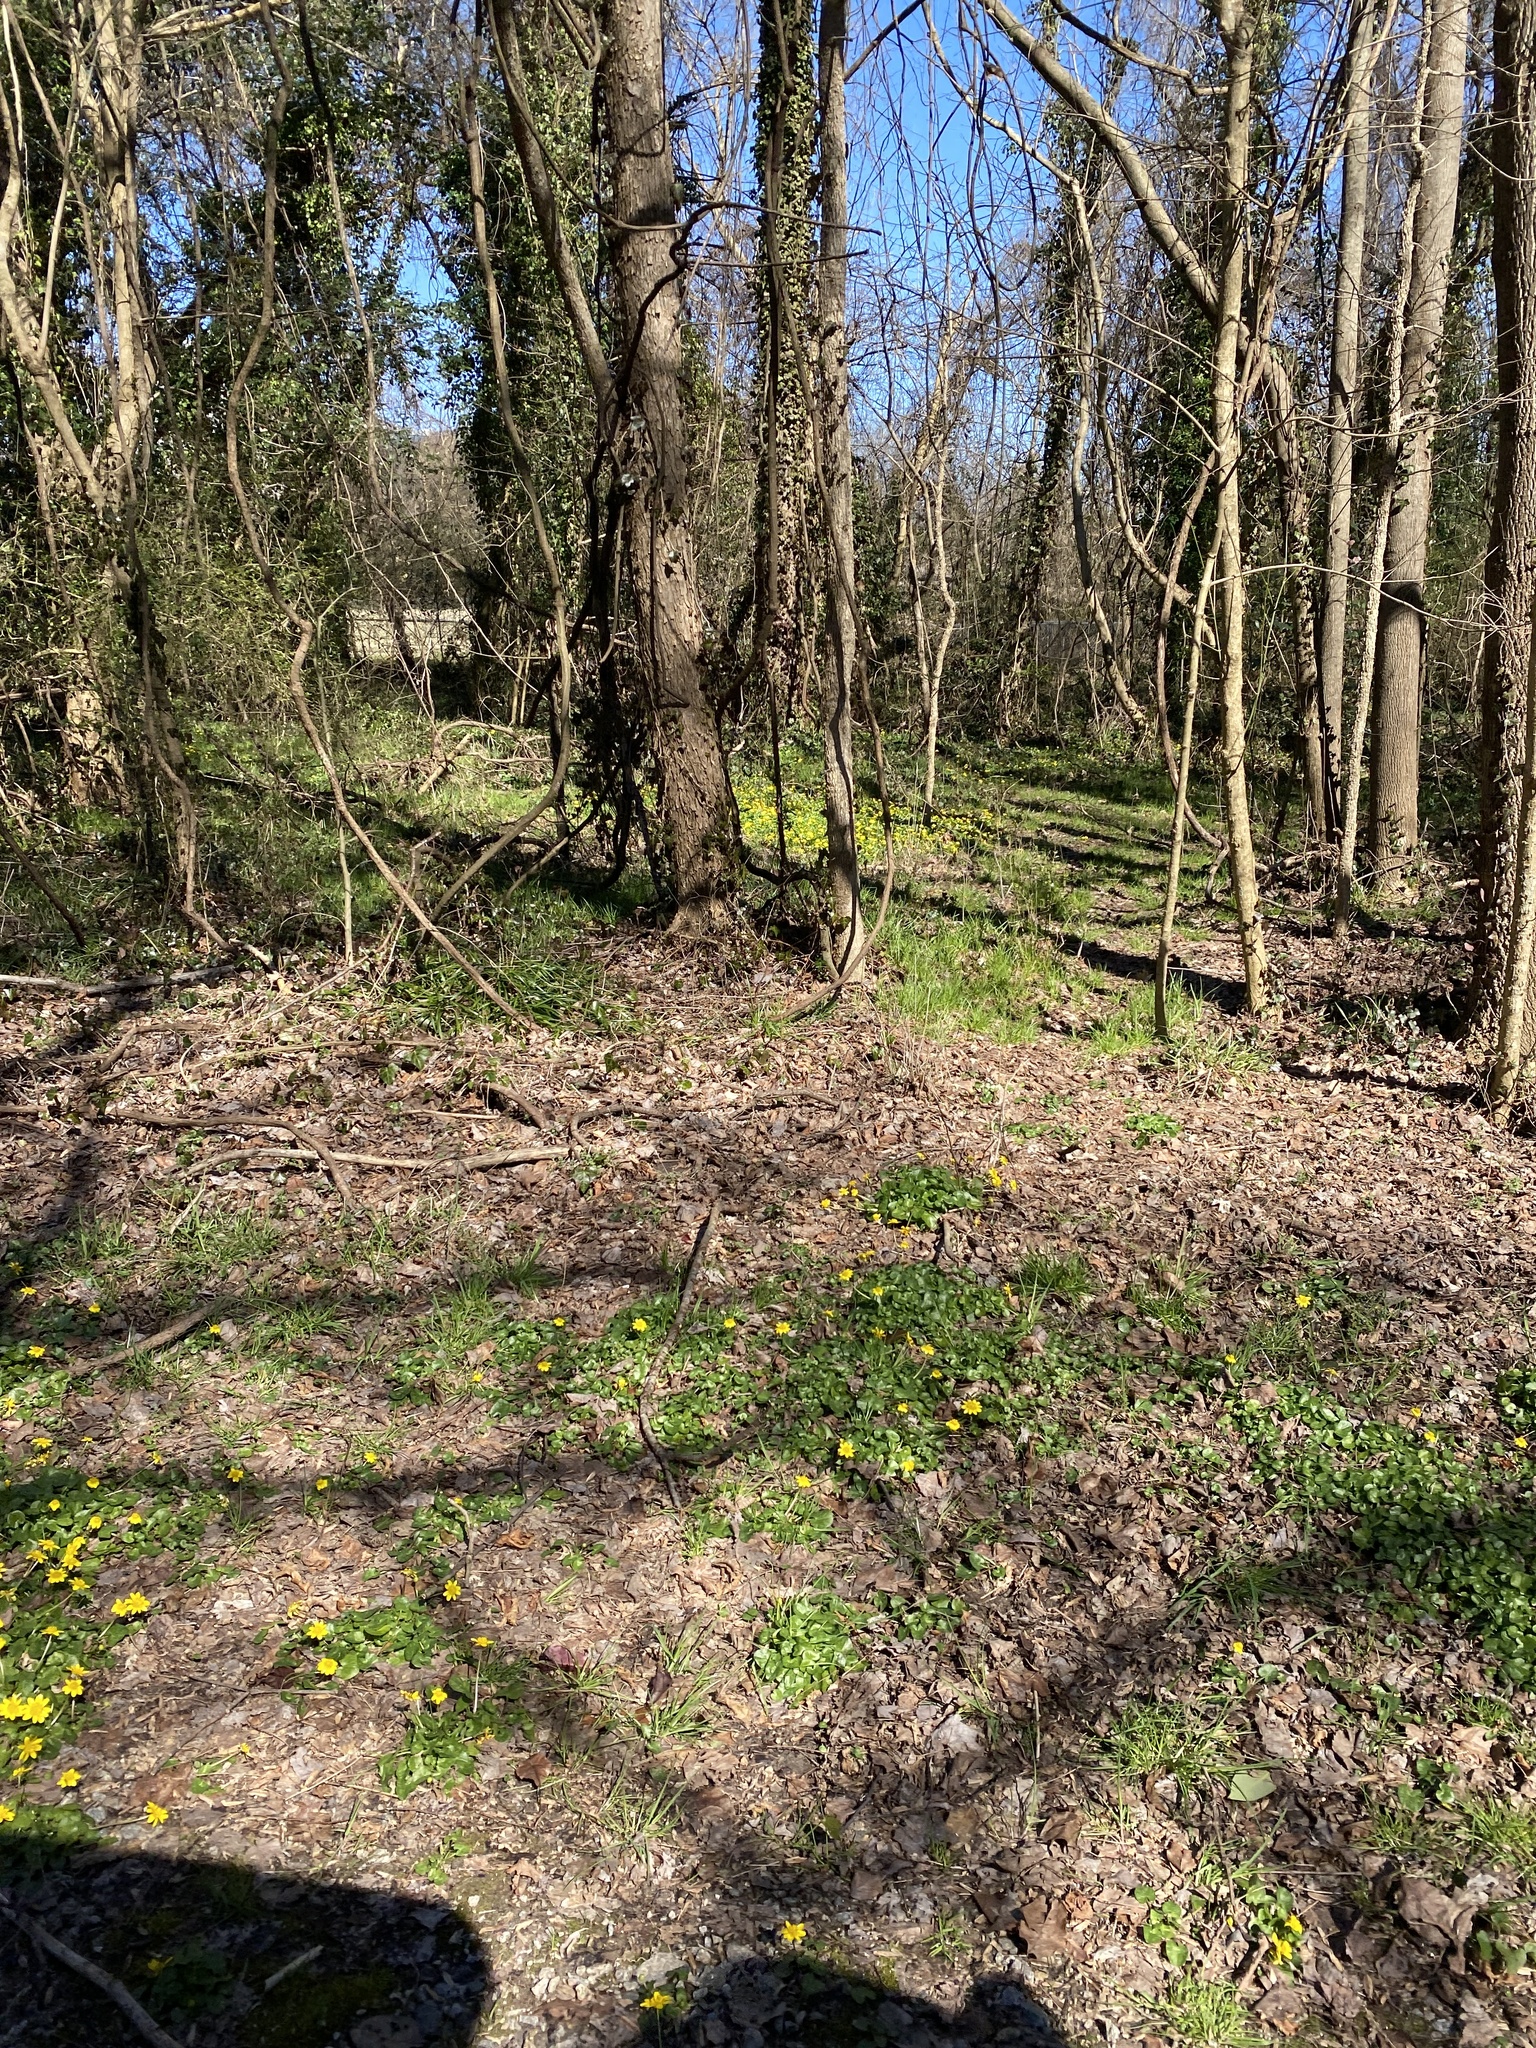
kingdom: Plantae
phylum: Tracheophyta
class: Magnoliopsida
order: Ranunculales
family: Ranunculaceae
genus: Ficaria
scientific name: Ficaria verna
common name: Lesser celandine
